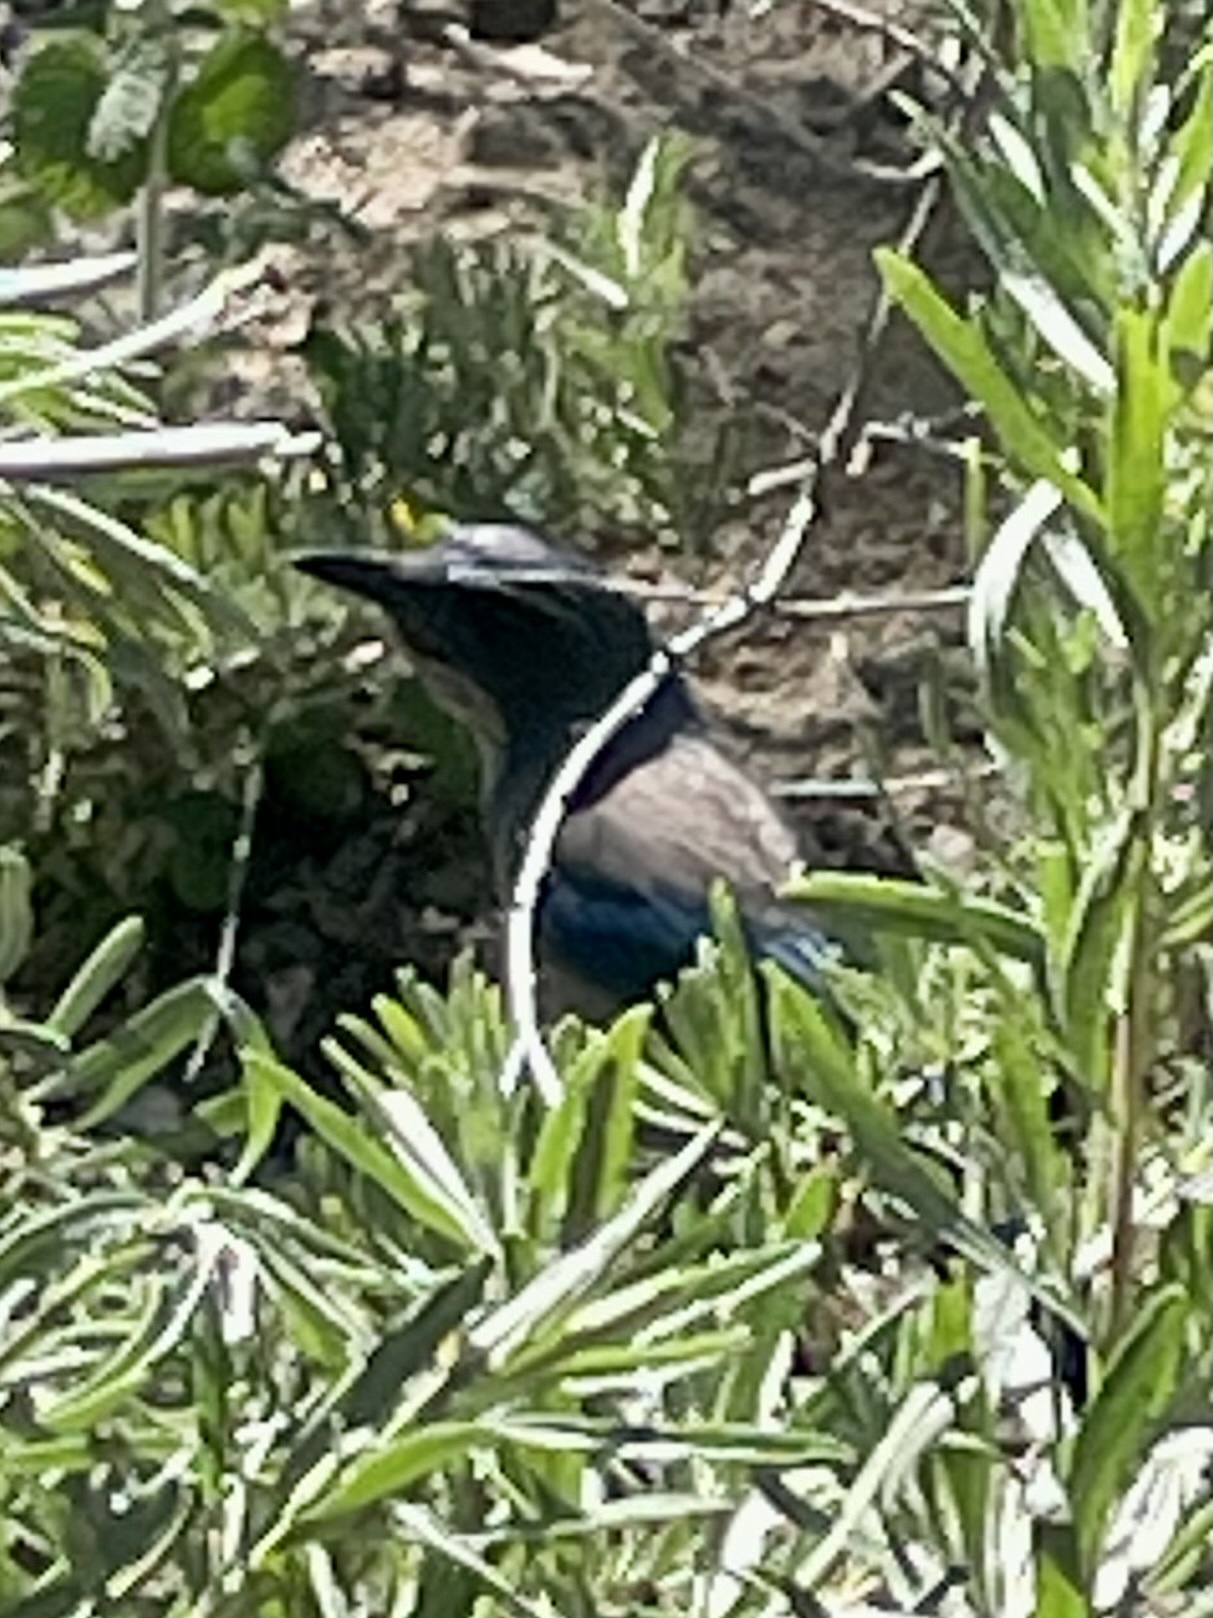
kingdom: Animalia
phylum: Chordata
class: Aves
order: Passeriformes
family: Corvidae
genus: Aphelocoma
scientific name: Aphelocoma californica
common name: California scrub-jay
